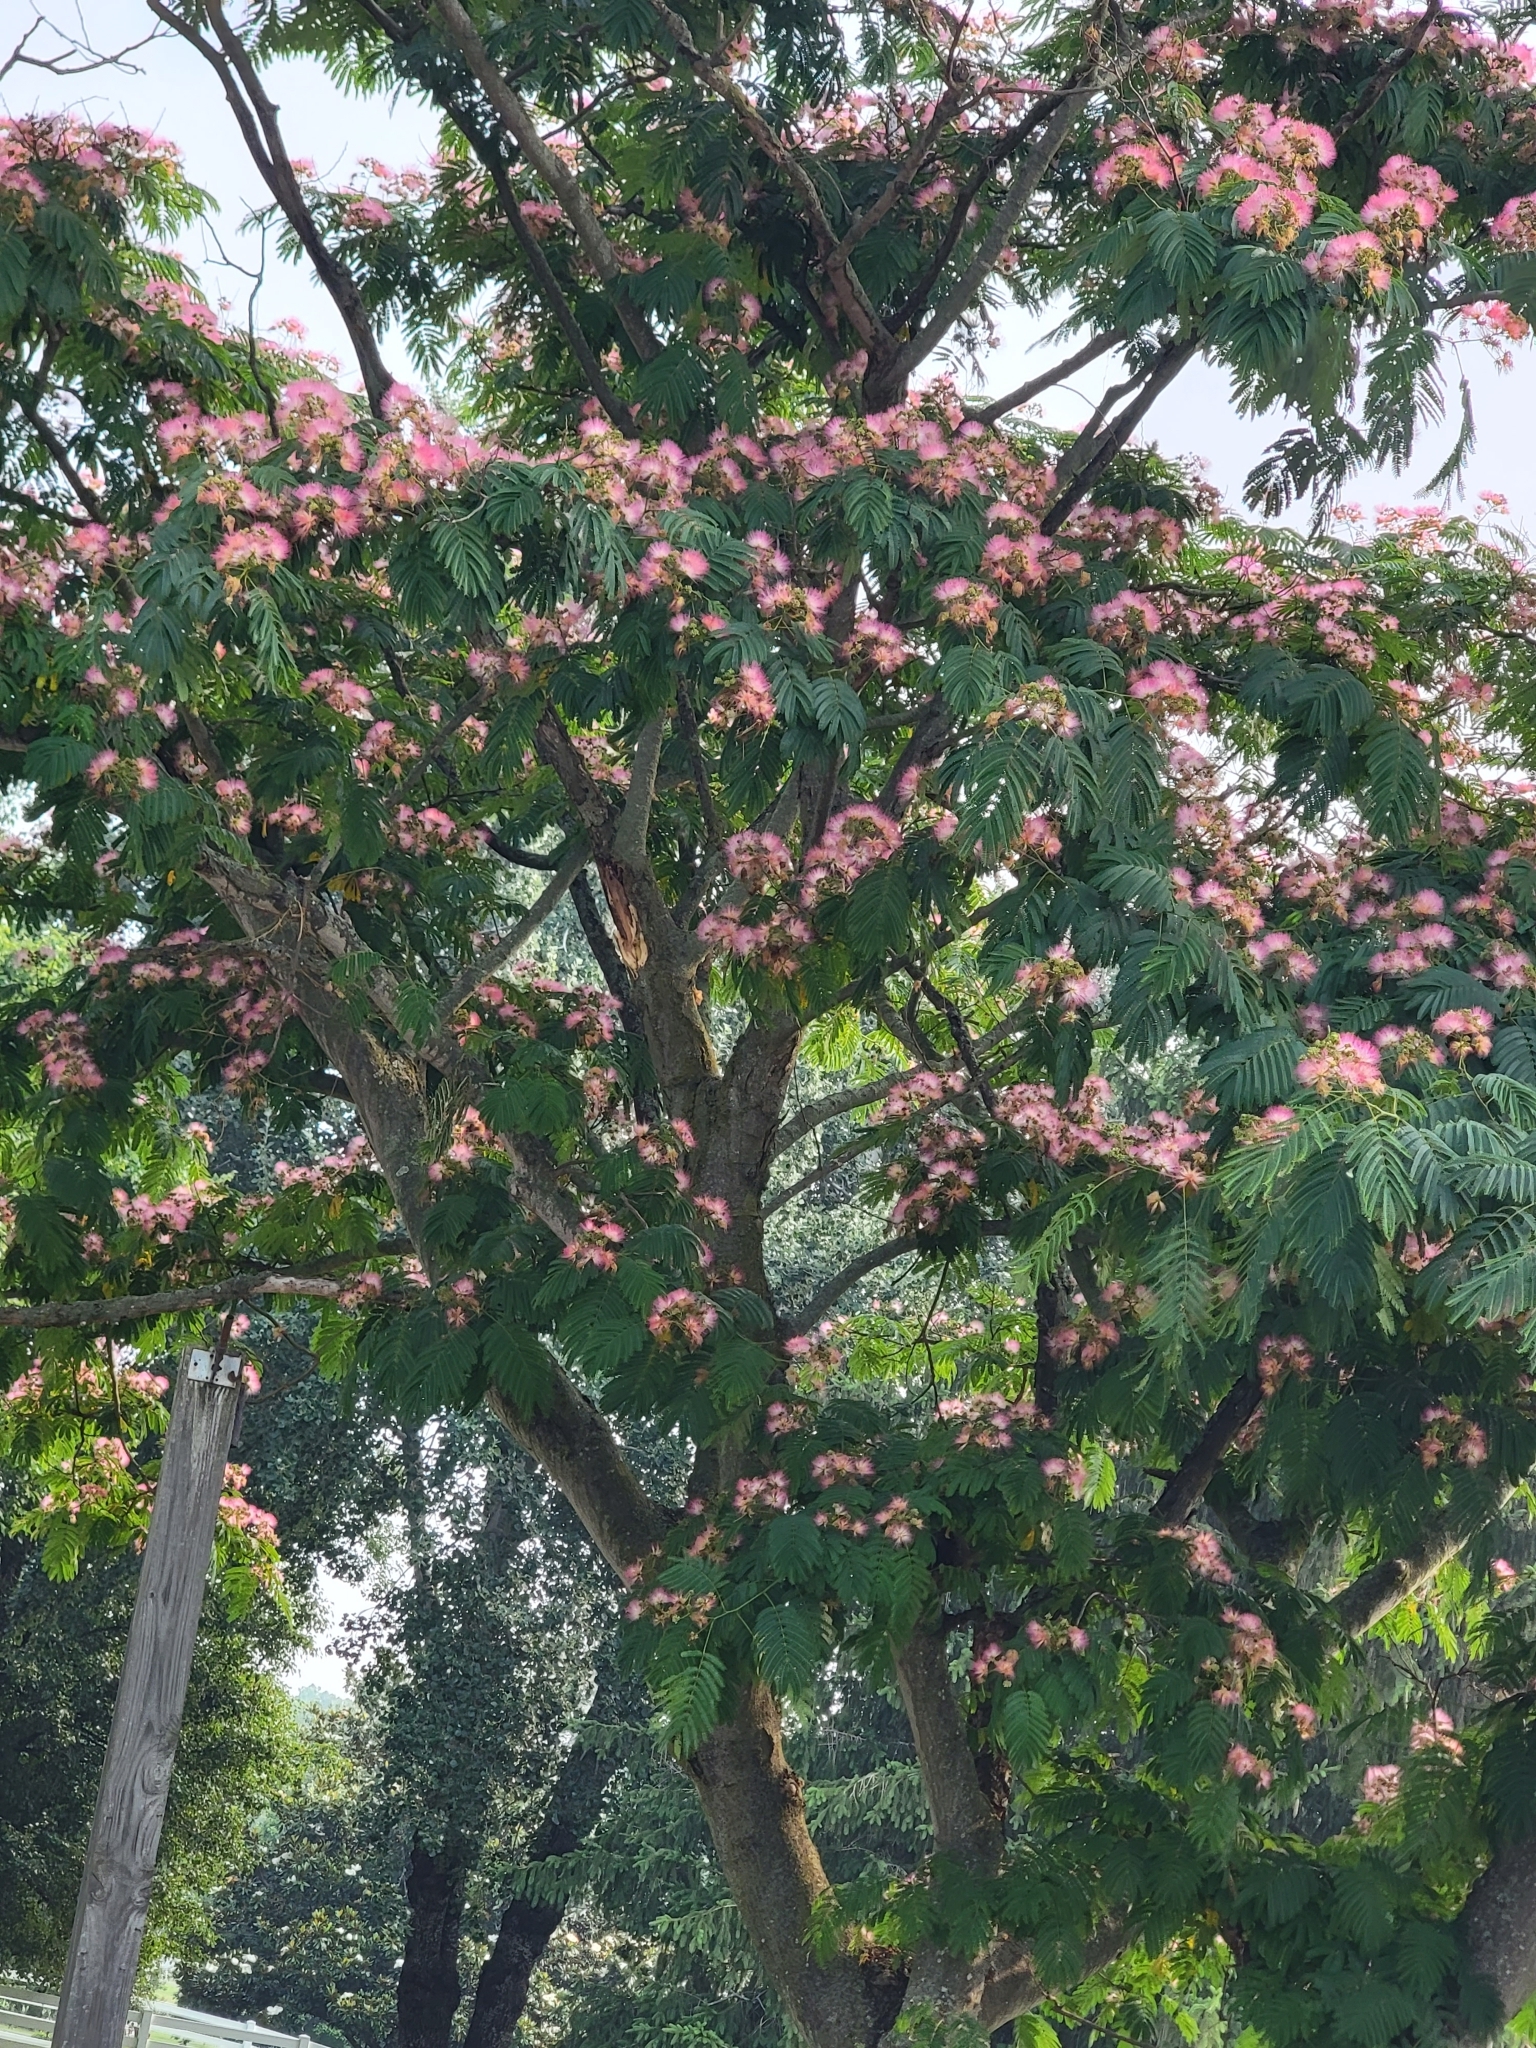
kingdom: Plantae
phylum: Tracheophyta
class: Magnoliopsida
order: Fabales
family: Fabaceae
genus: Albizia
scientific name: Albizia julibrissin
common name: Silktree
